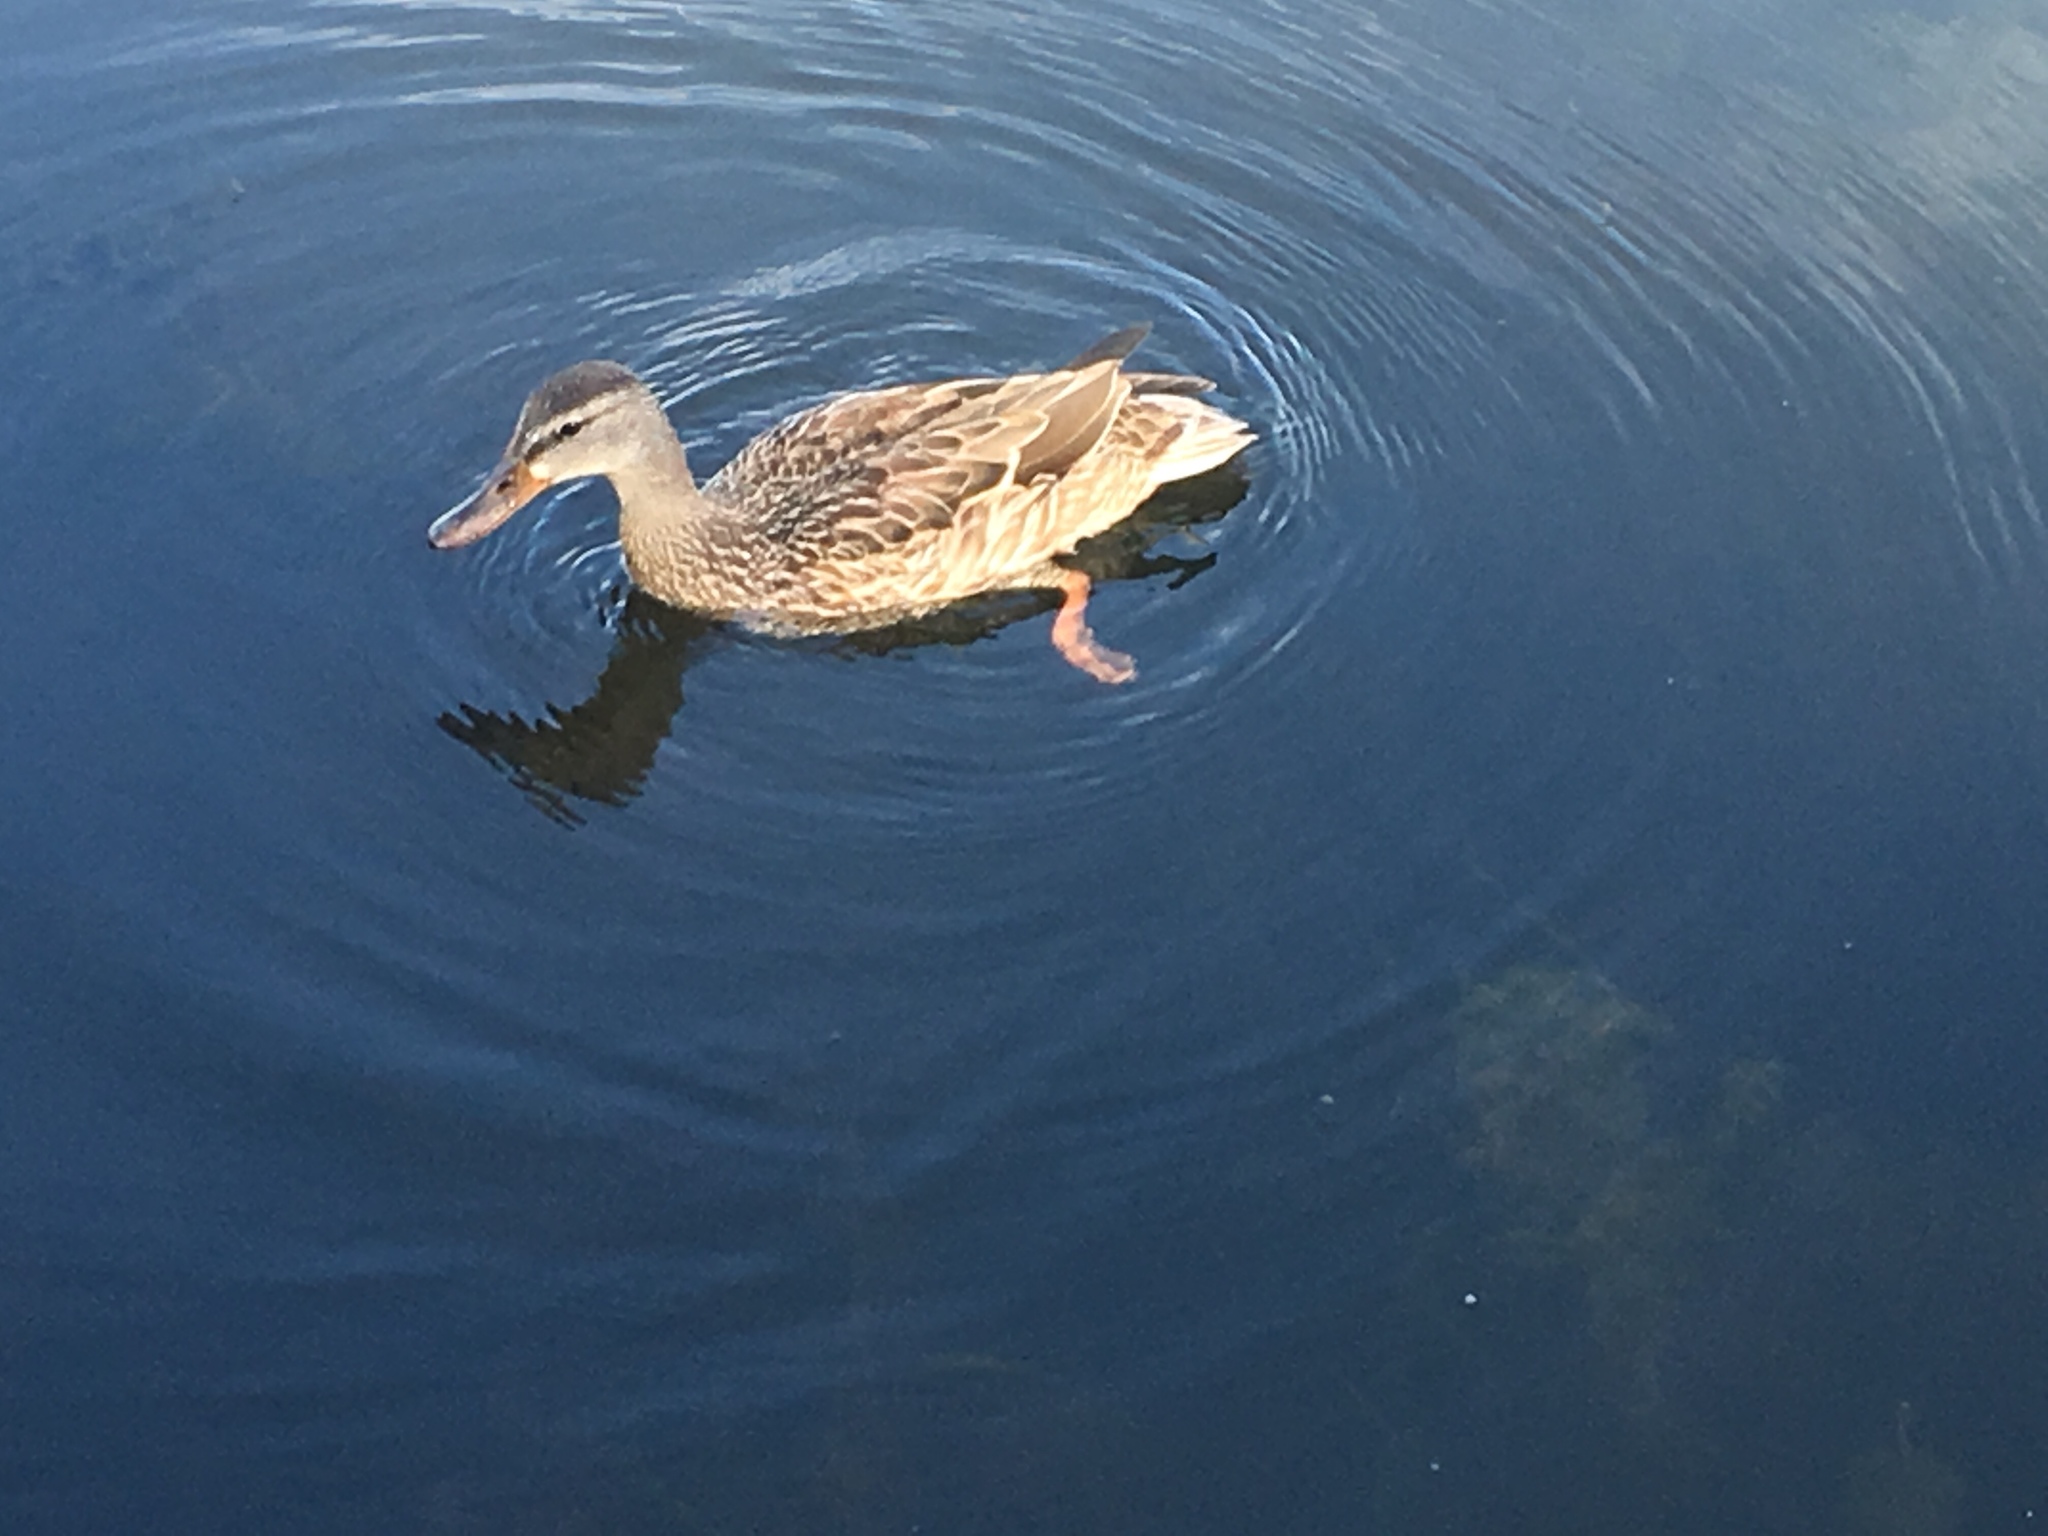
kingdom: Animalia
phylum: Chordata
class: Aves
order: Anseriformes
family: Anatidae
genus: Anas
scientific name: Anas platyrhynchos
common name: Mallard
